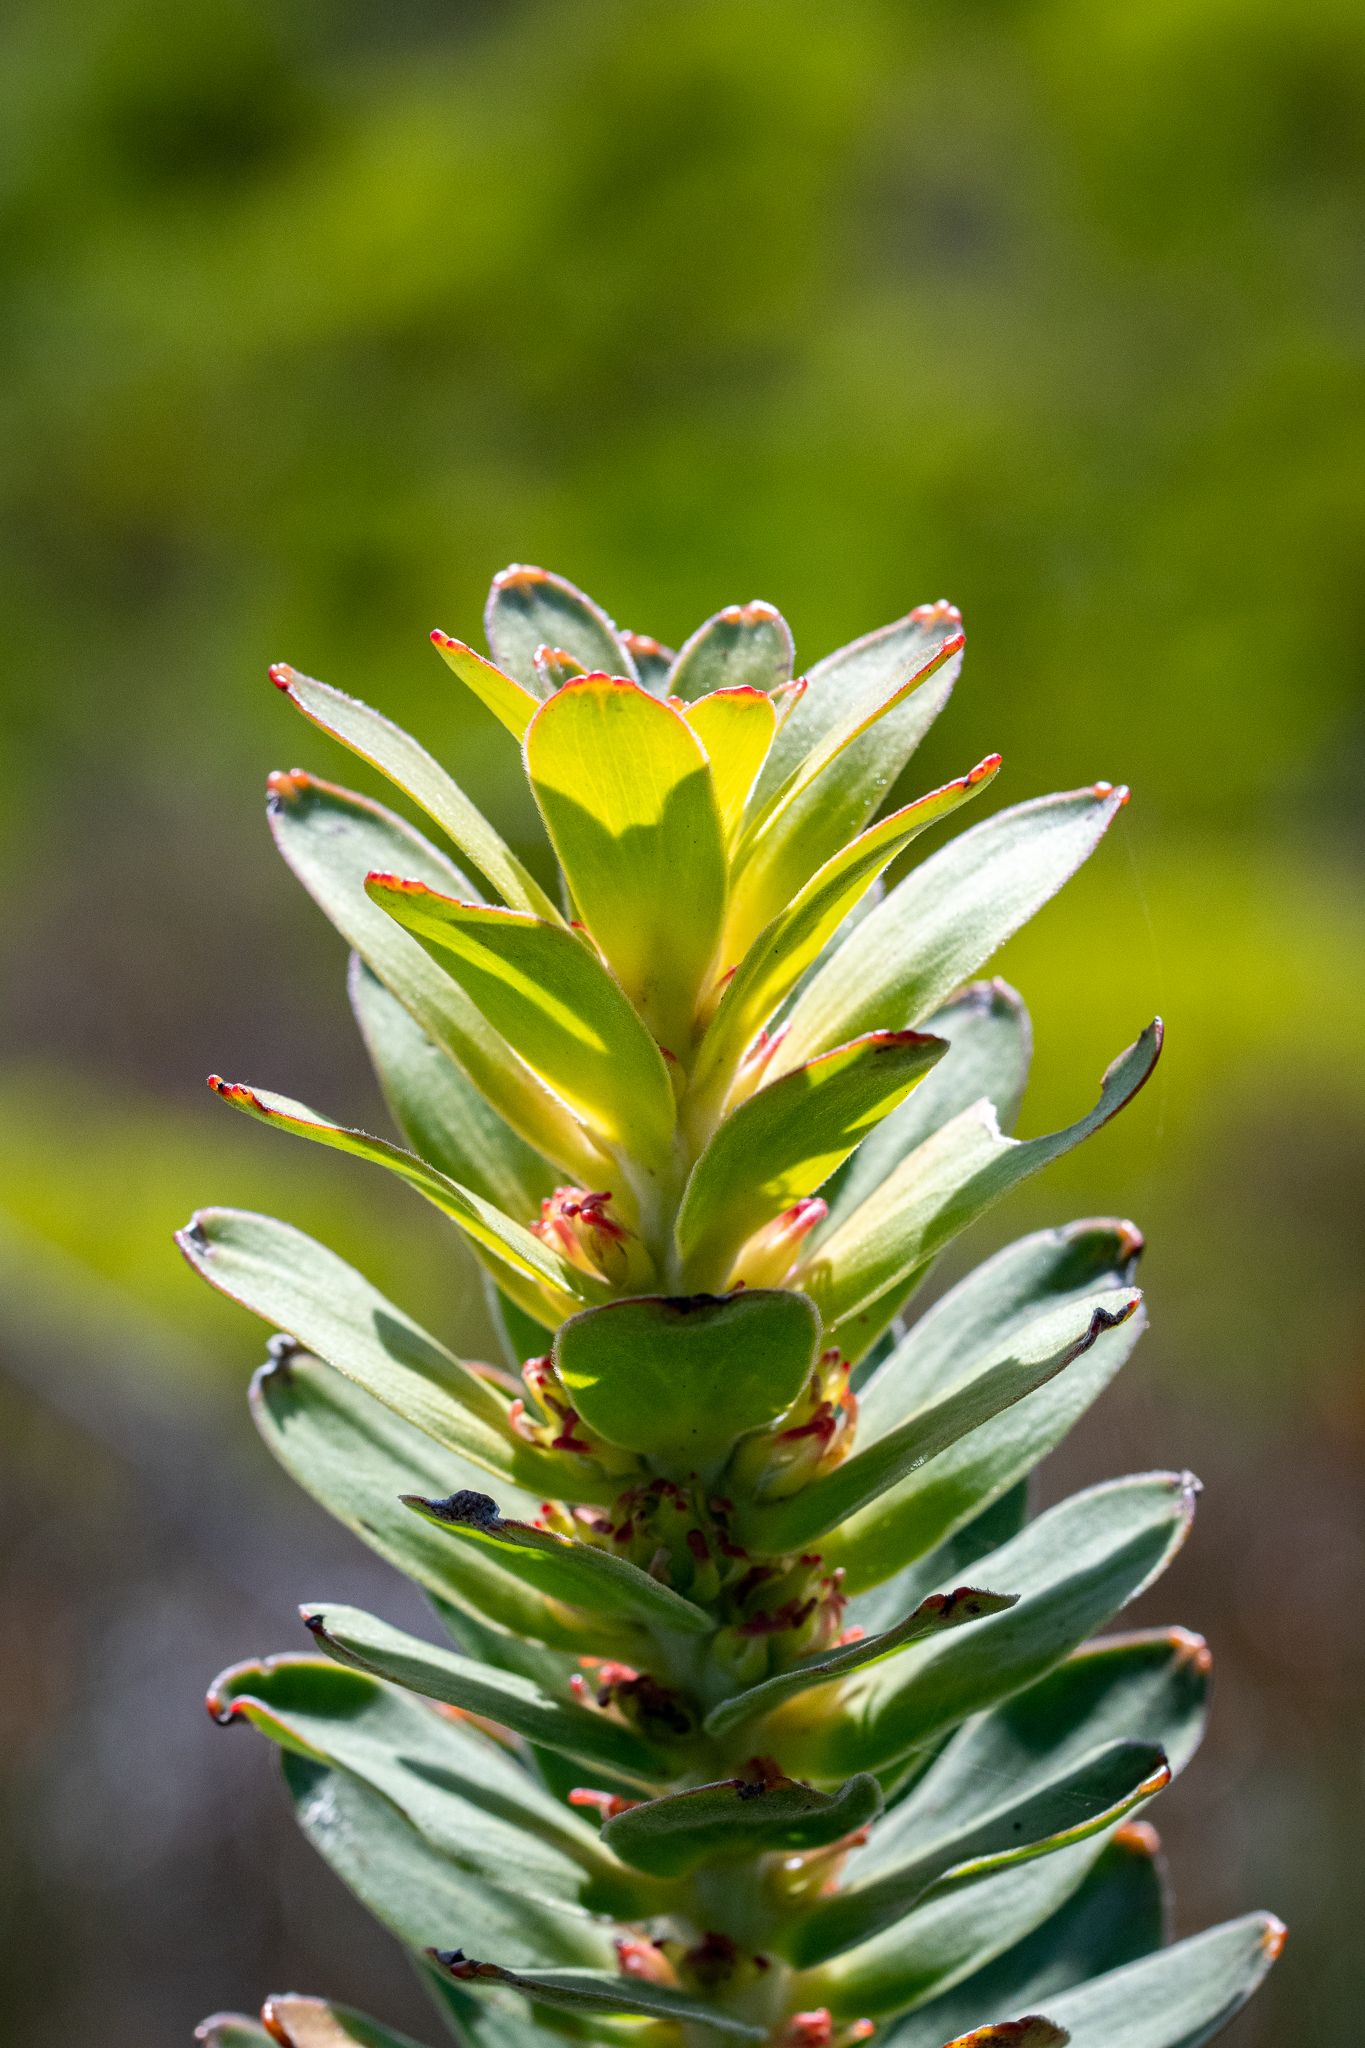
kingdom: Plantae
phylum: Tracheophyta
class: Magnoliopsida
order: Proteales
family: Proteaceae
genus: Mimetes
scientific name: Mimetes saxatilis
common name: Limestone pagoda
